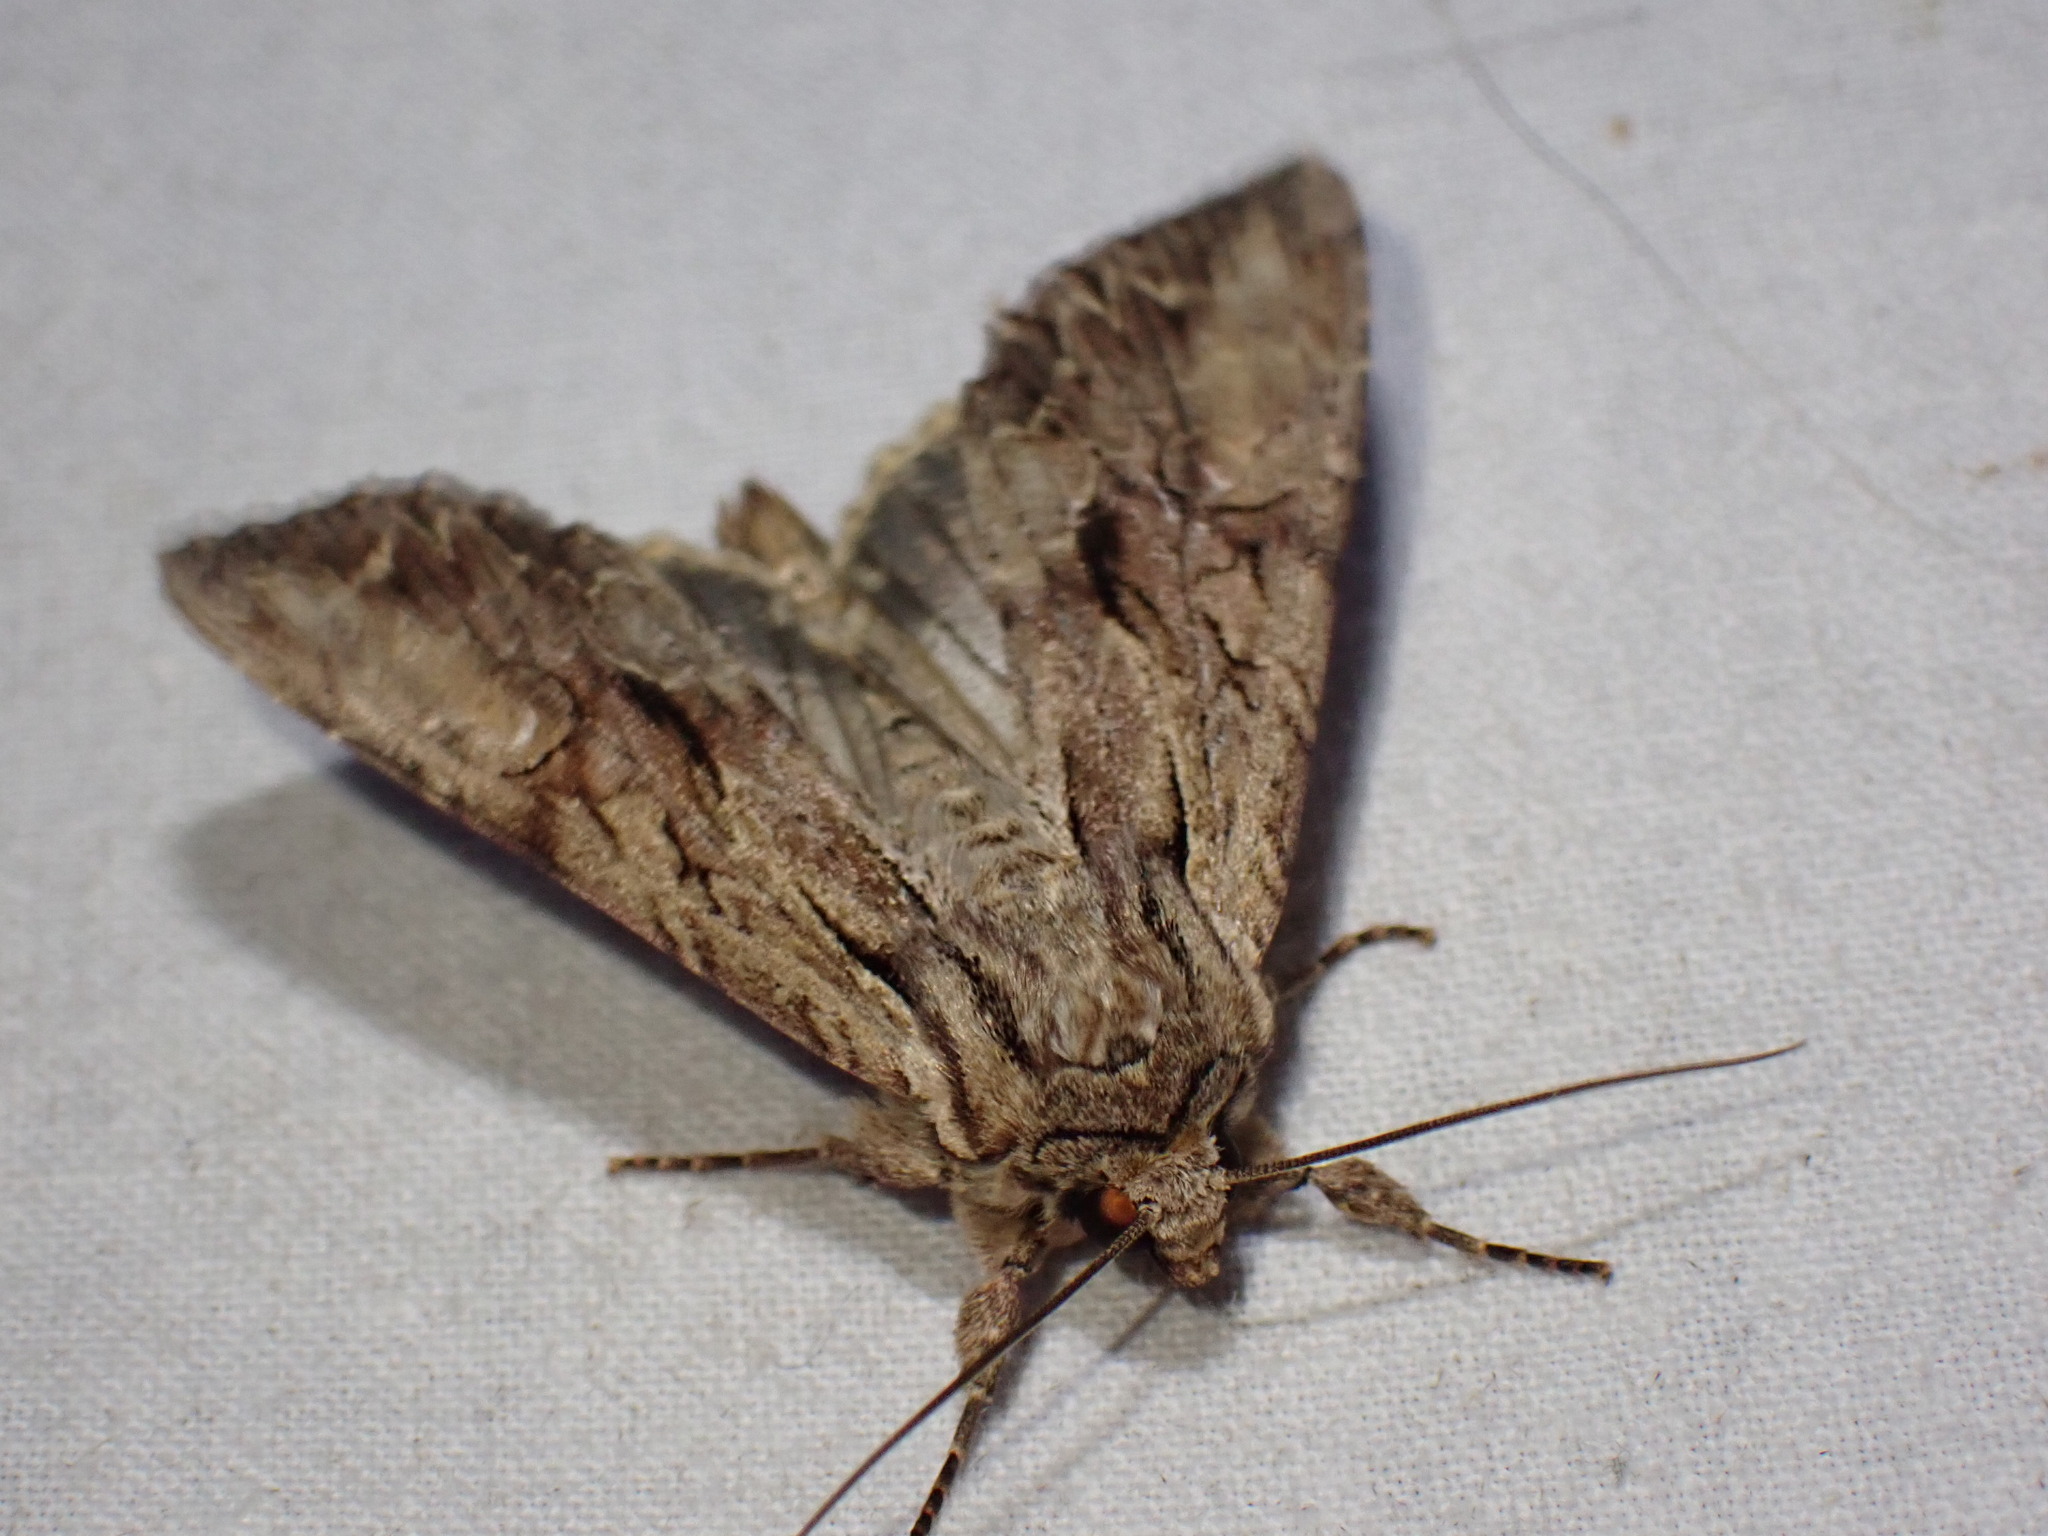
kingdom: Animalia
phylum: Arthropoda
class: Insecta
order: Lepidoptera
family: Noctuidae
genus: Apamea
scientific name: Apamea monoglypha
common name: Dark arches
